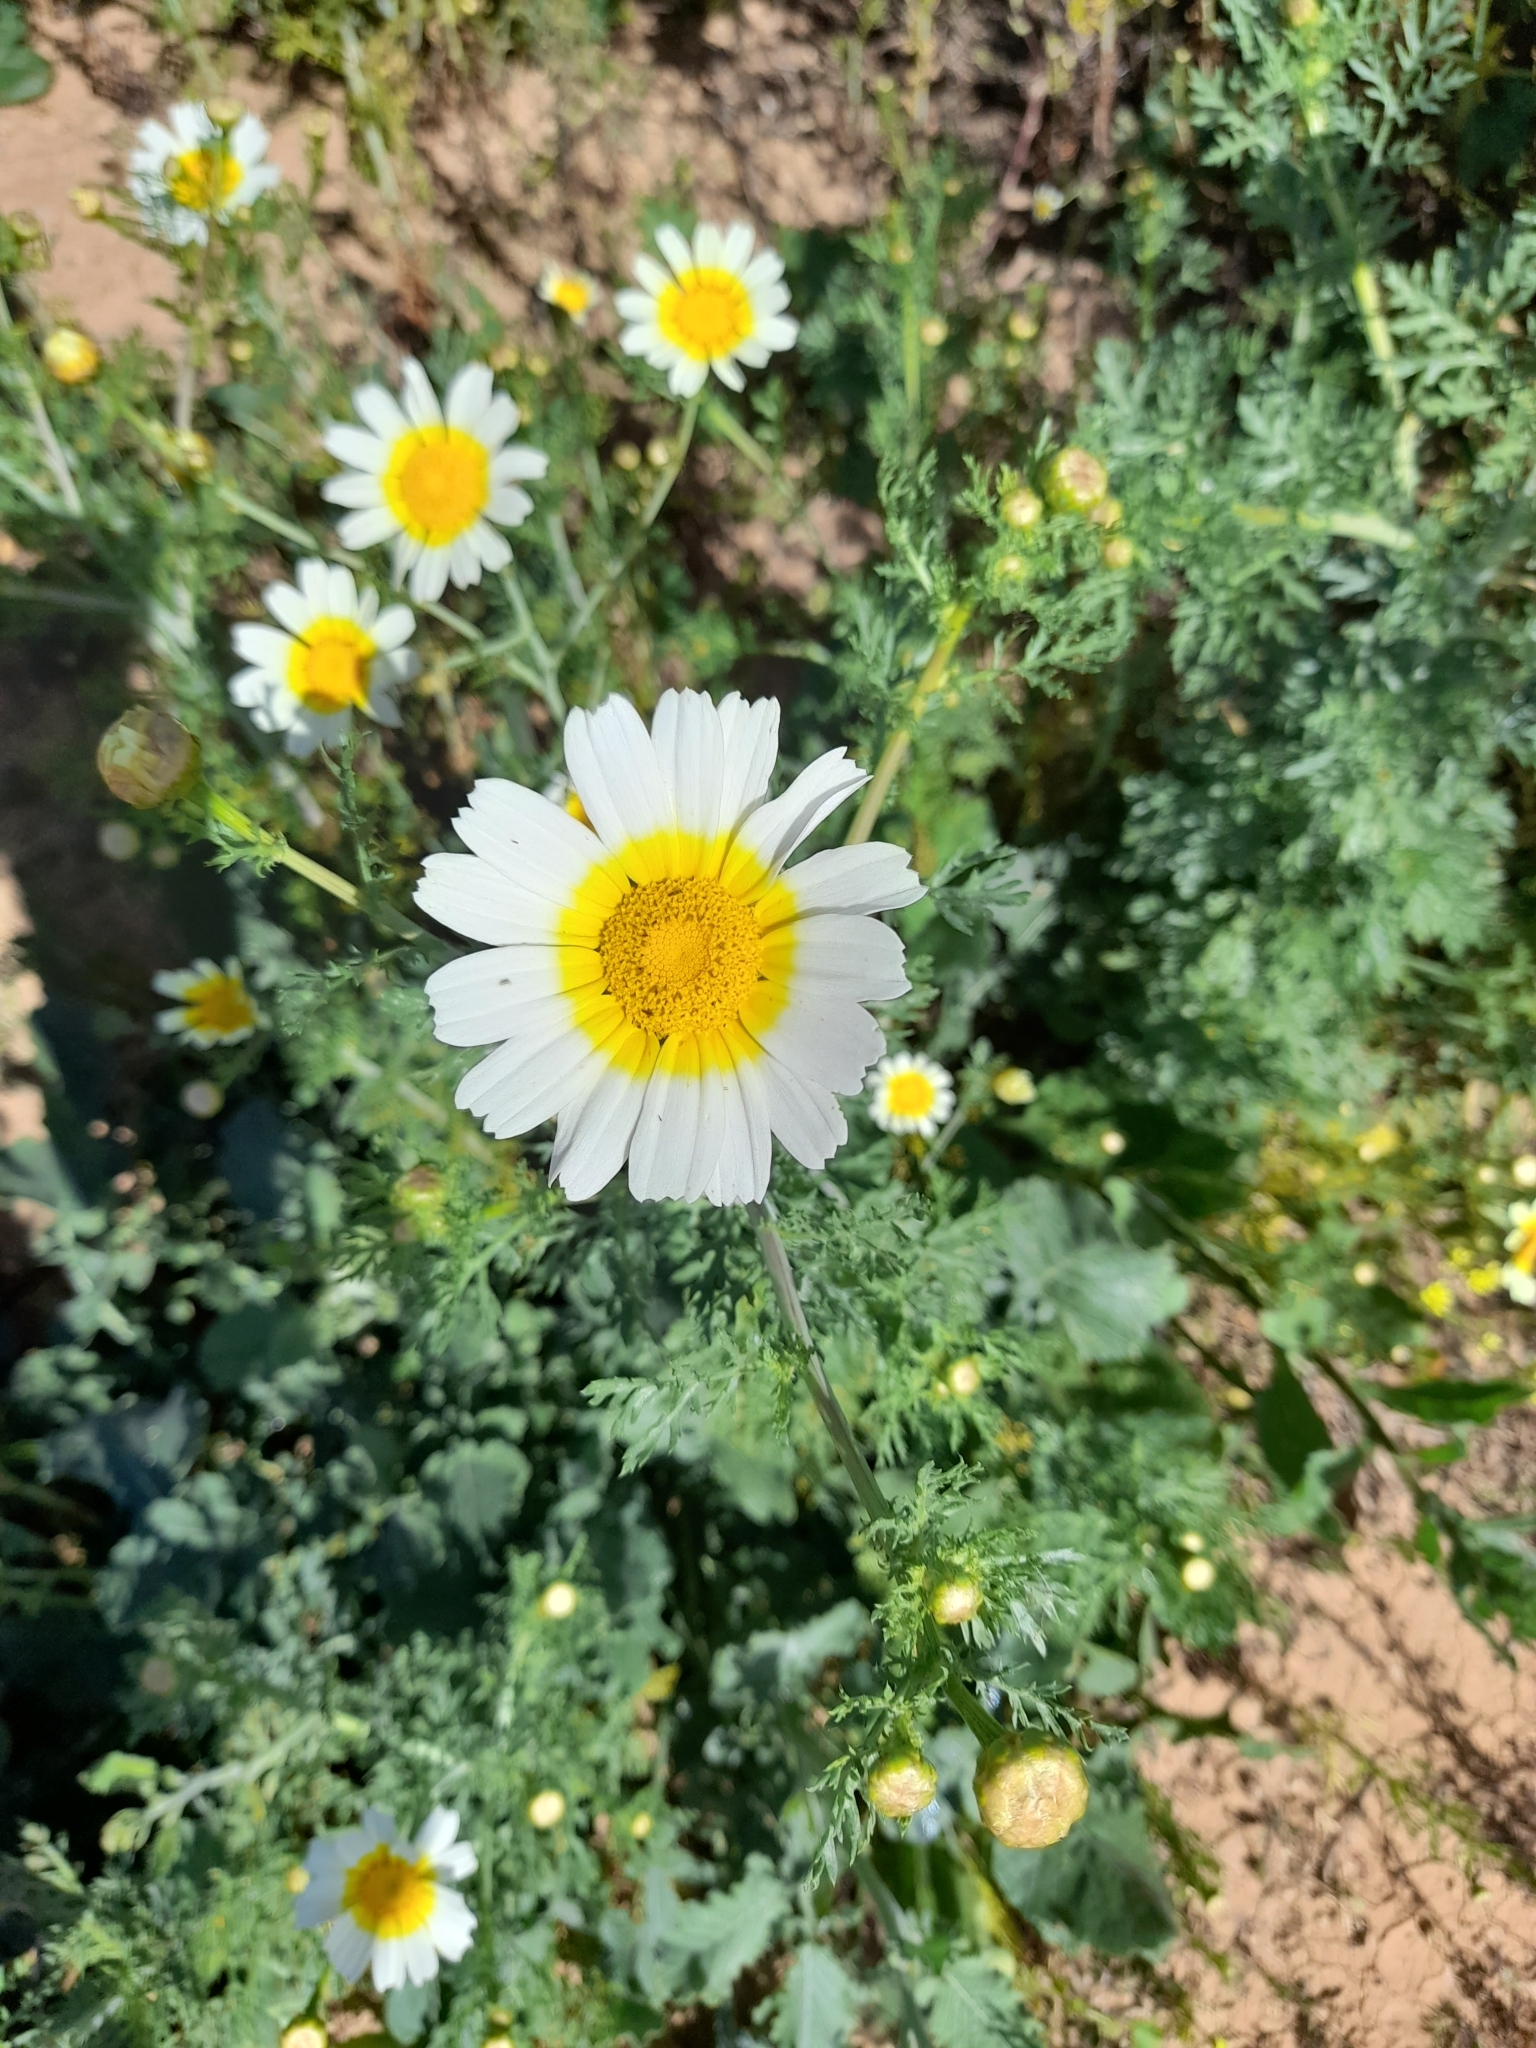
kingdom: Plantae
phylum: Tracheophyta
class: Magnoliopsida
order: Asterales
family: Asteraceae
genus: Glebionis
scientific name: Glebionis coronaria
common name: Crowndaisy
